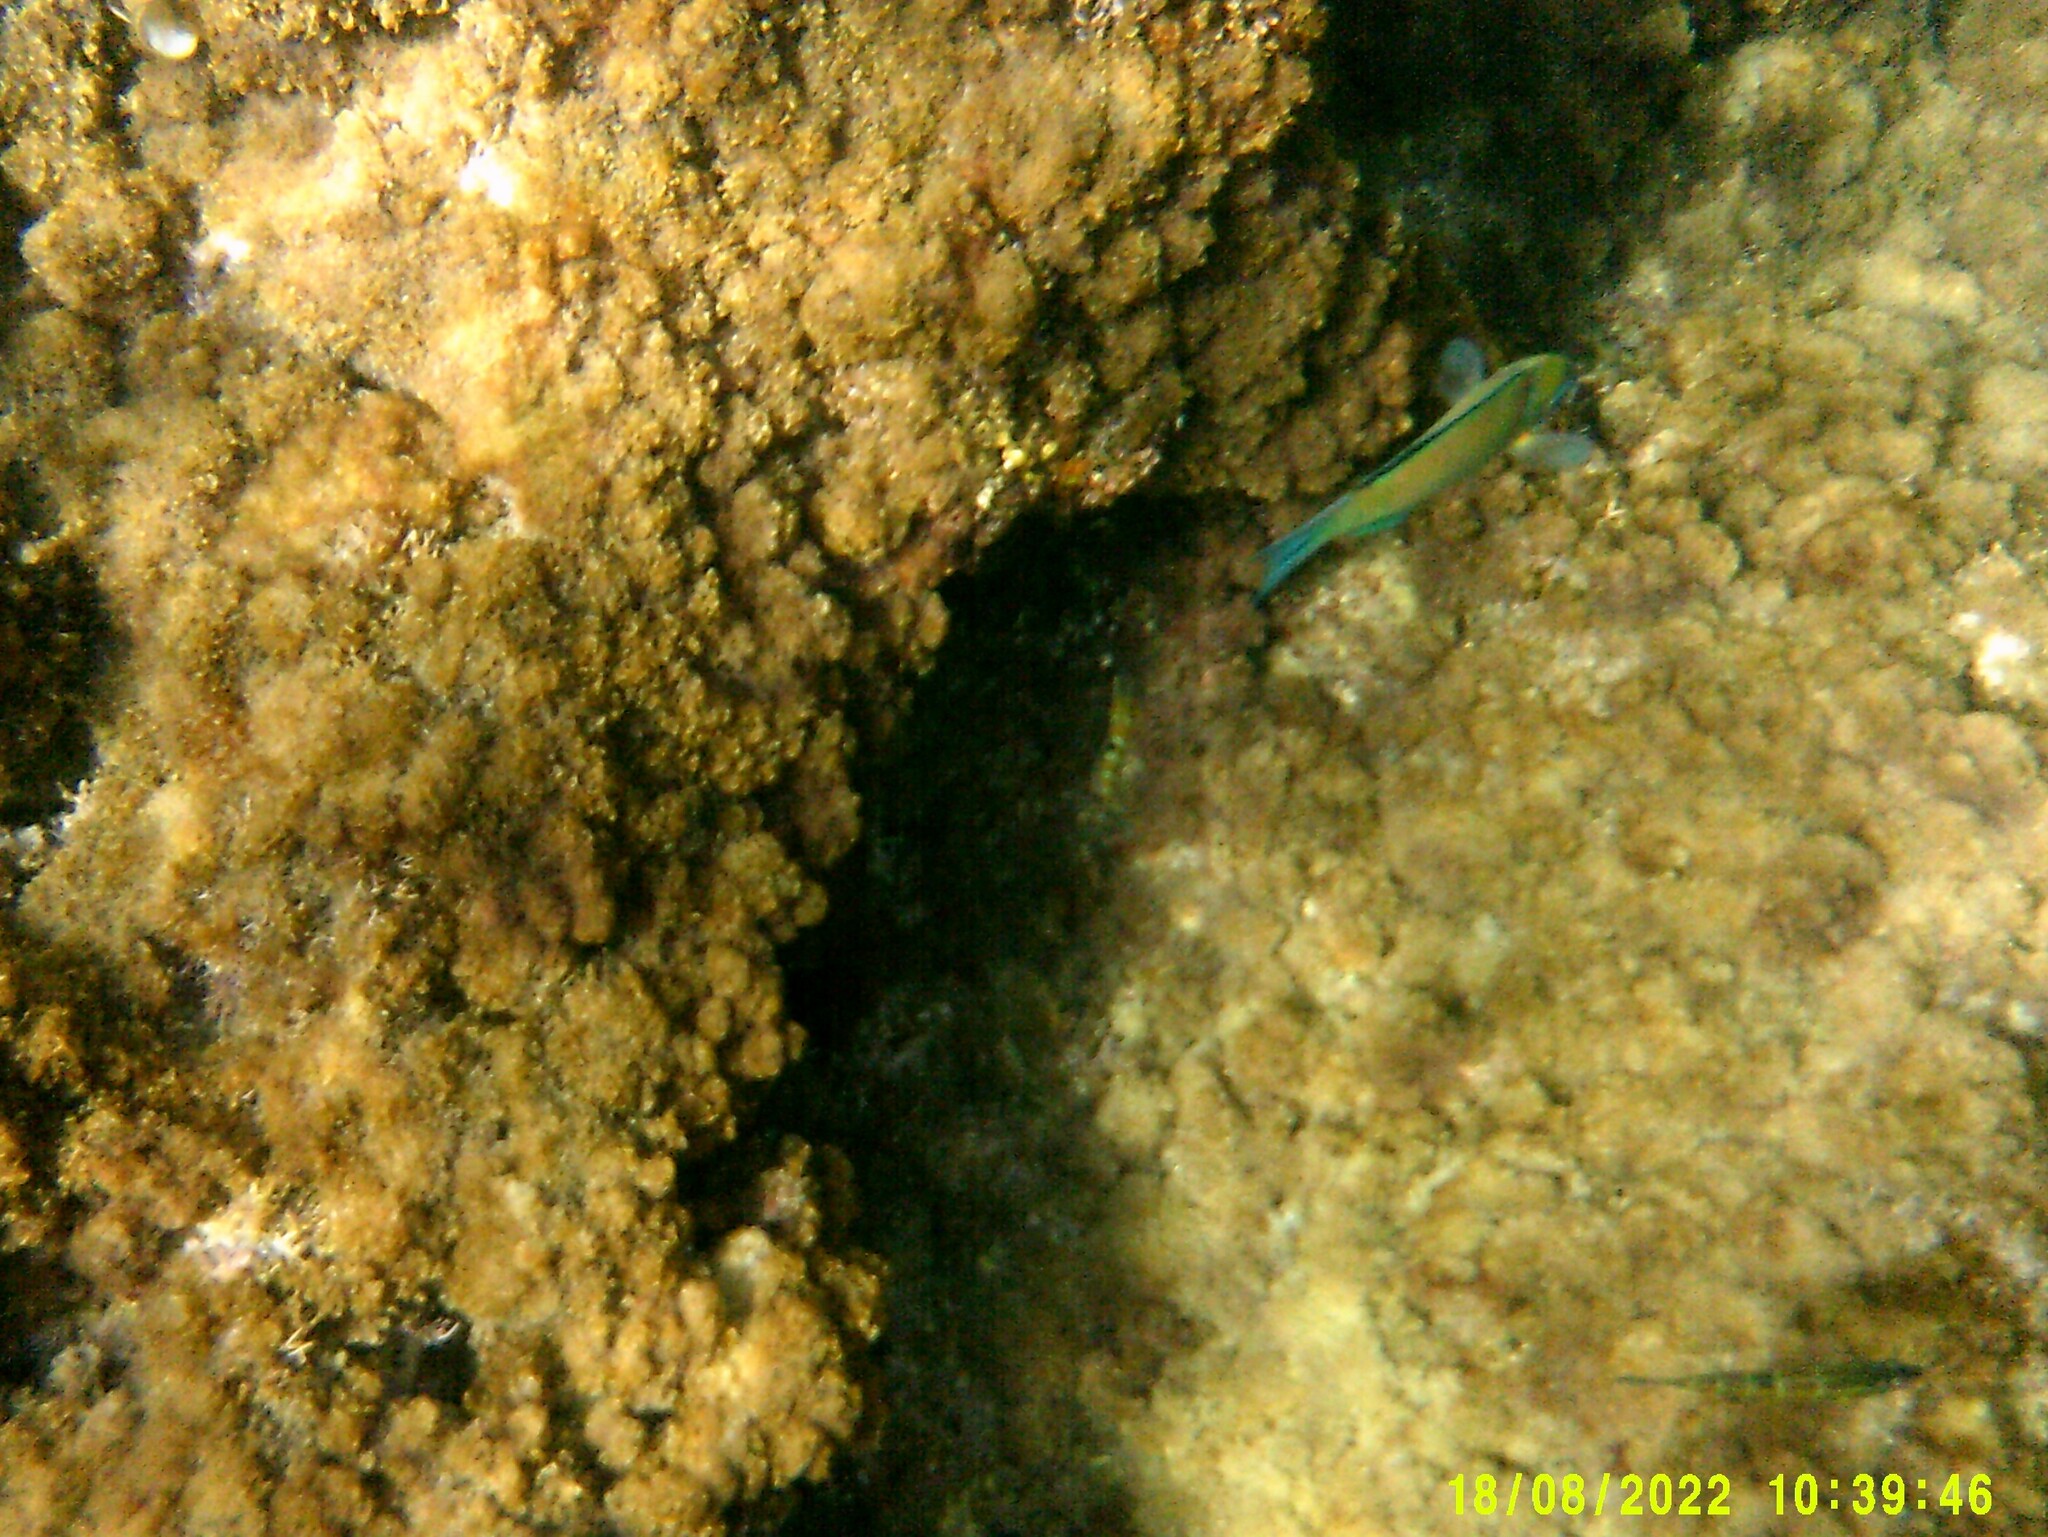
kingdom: Animalia
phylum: Chordata
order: Perciformes
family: Labridae
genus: Thalassoma
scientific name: Thalassoma pavo
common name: Ornate wrasse
